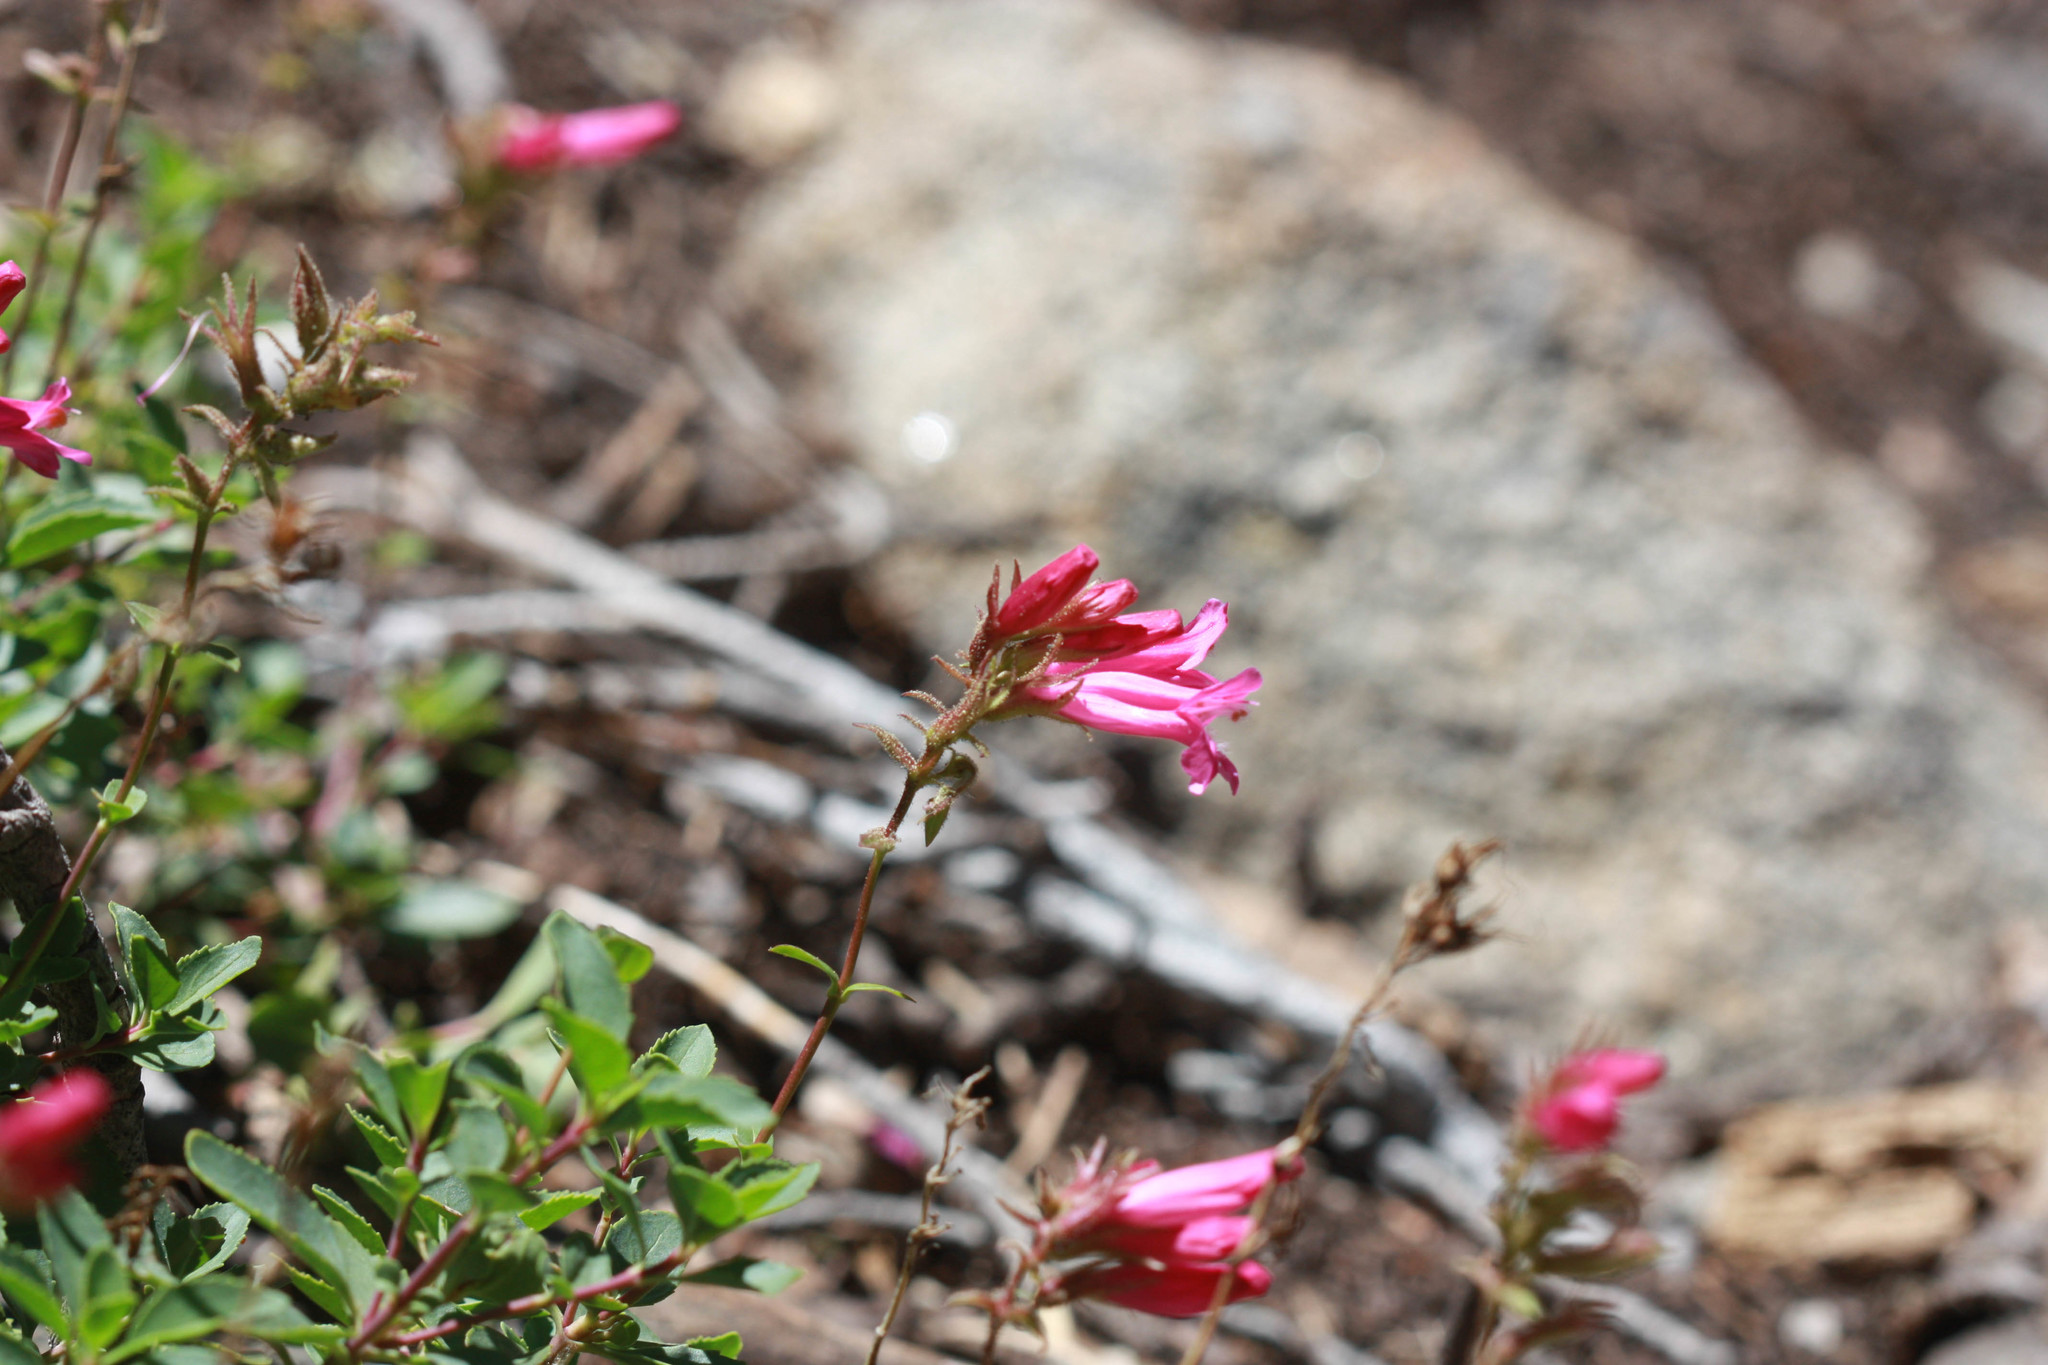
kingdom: Plantae
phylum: Tracheophyta
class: Magnoliopsida
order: Lamiales
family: Plantaginaceae
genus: Penstemon
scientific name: Penstemon newberryi
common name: Mountain-pride
